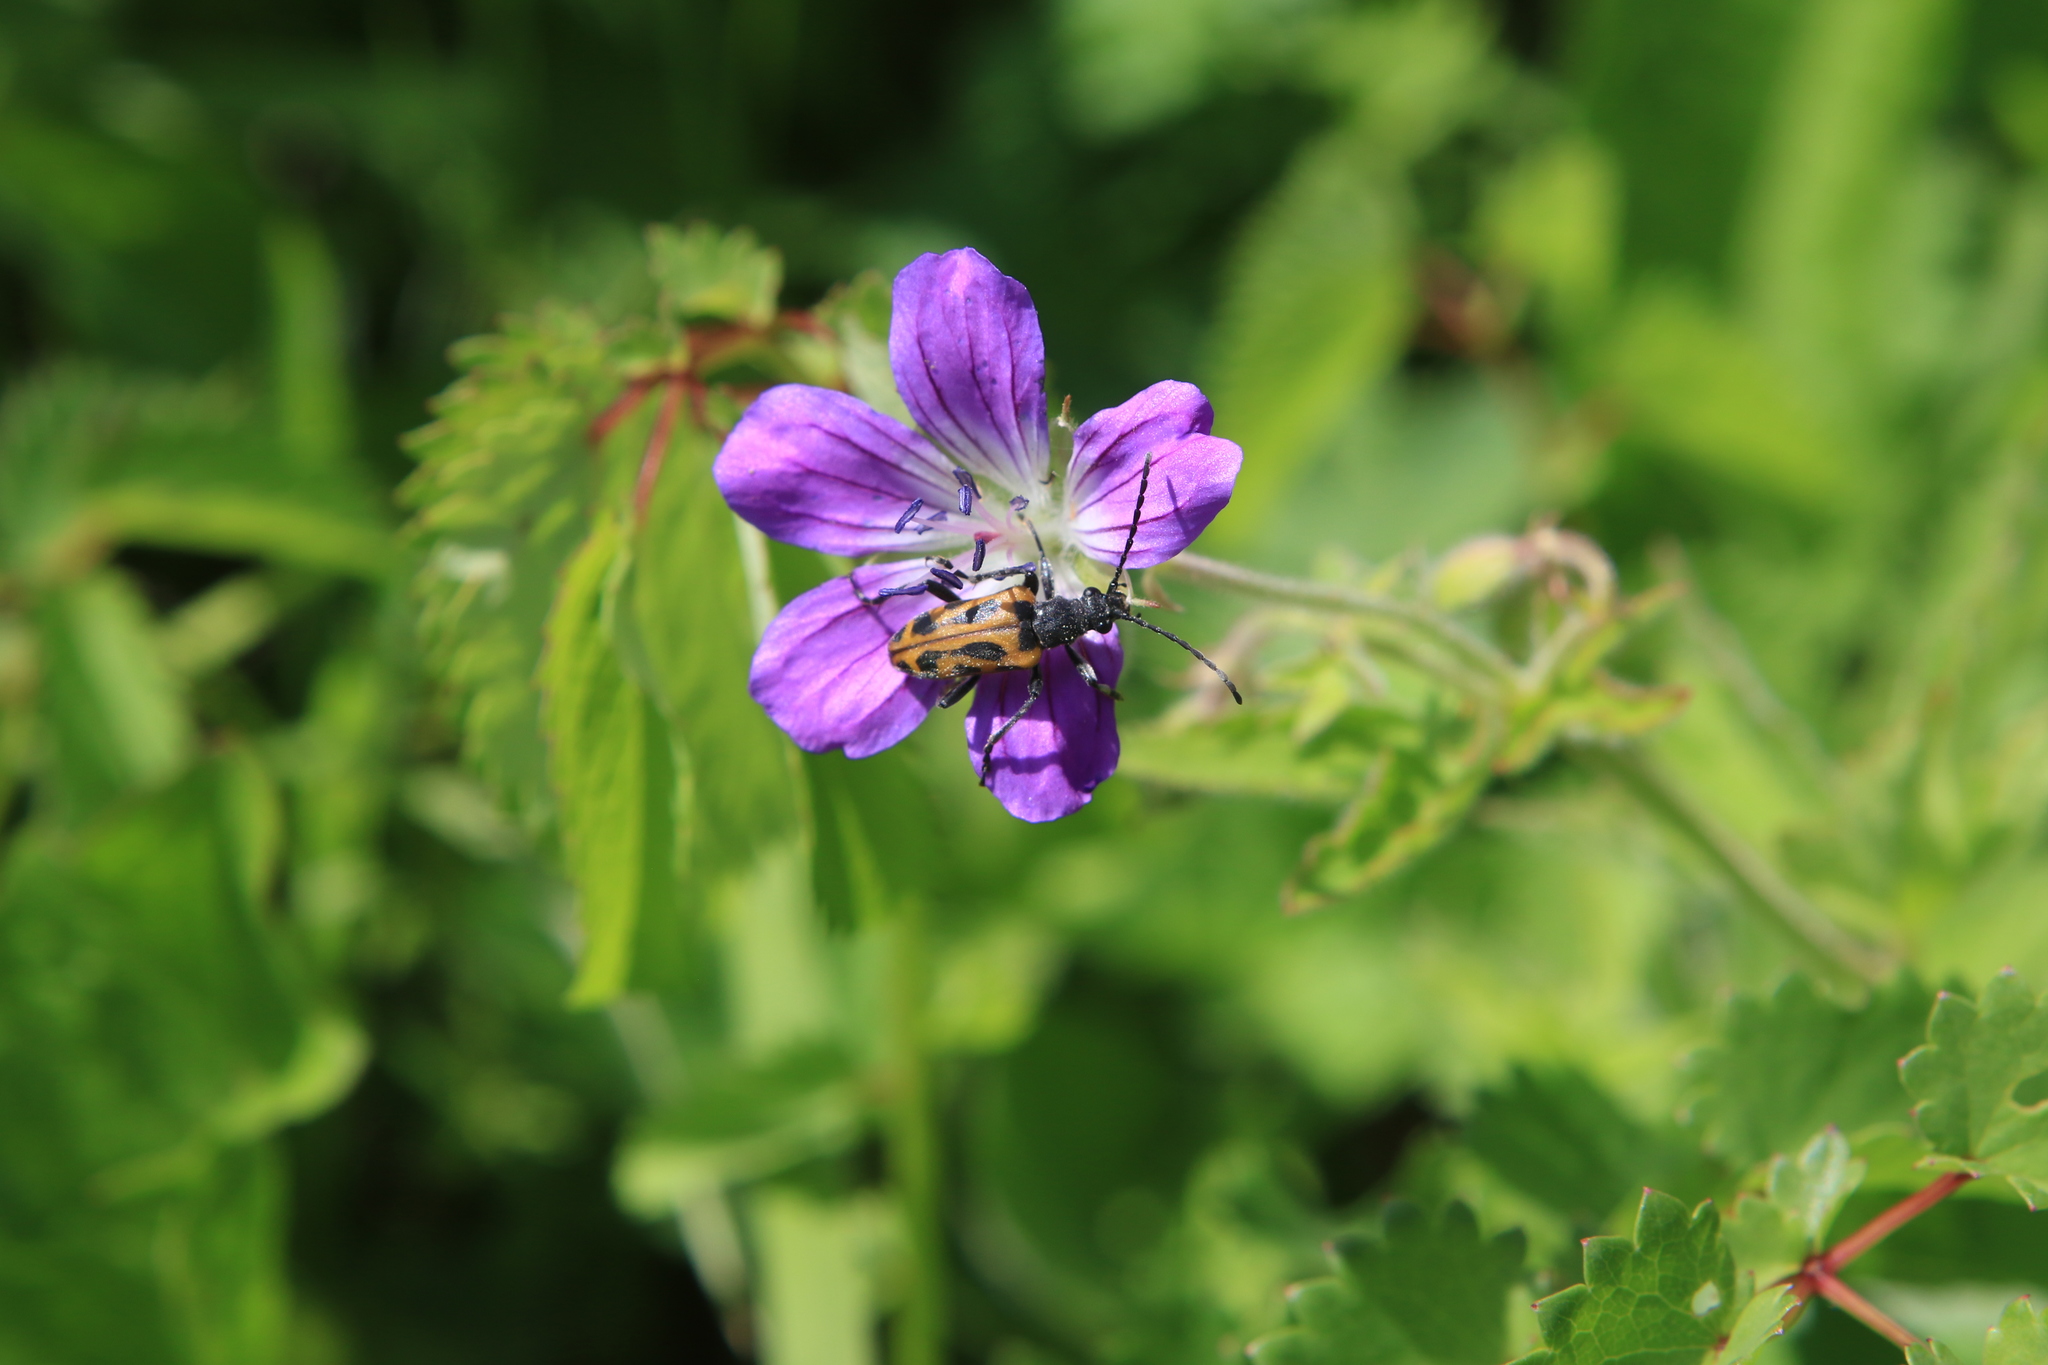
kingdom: Plantae
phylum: Tracheophyta
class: Magnoliopsida
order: Geraniales
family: Geraniaceae
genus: Geranium
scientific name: Geranium sylvaticum
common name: Wood crane's-bill
